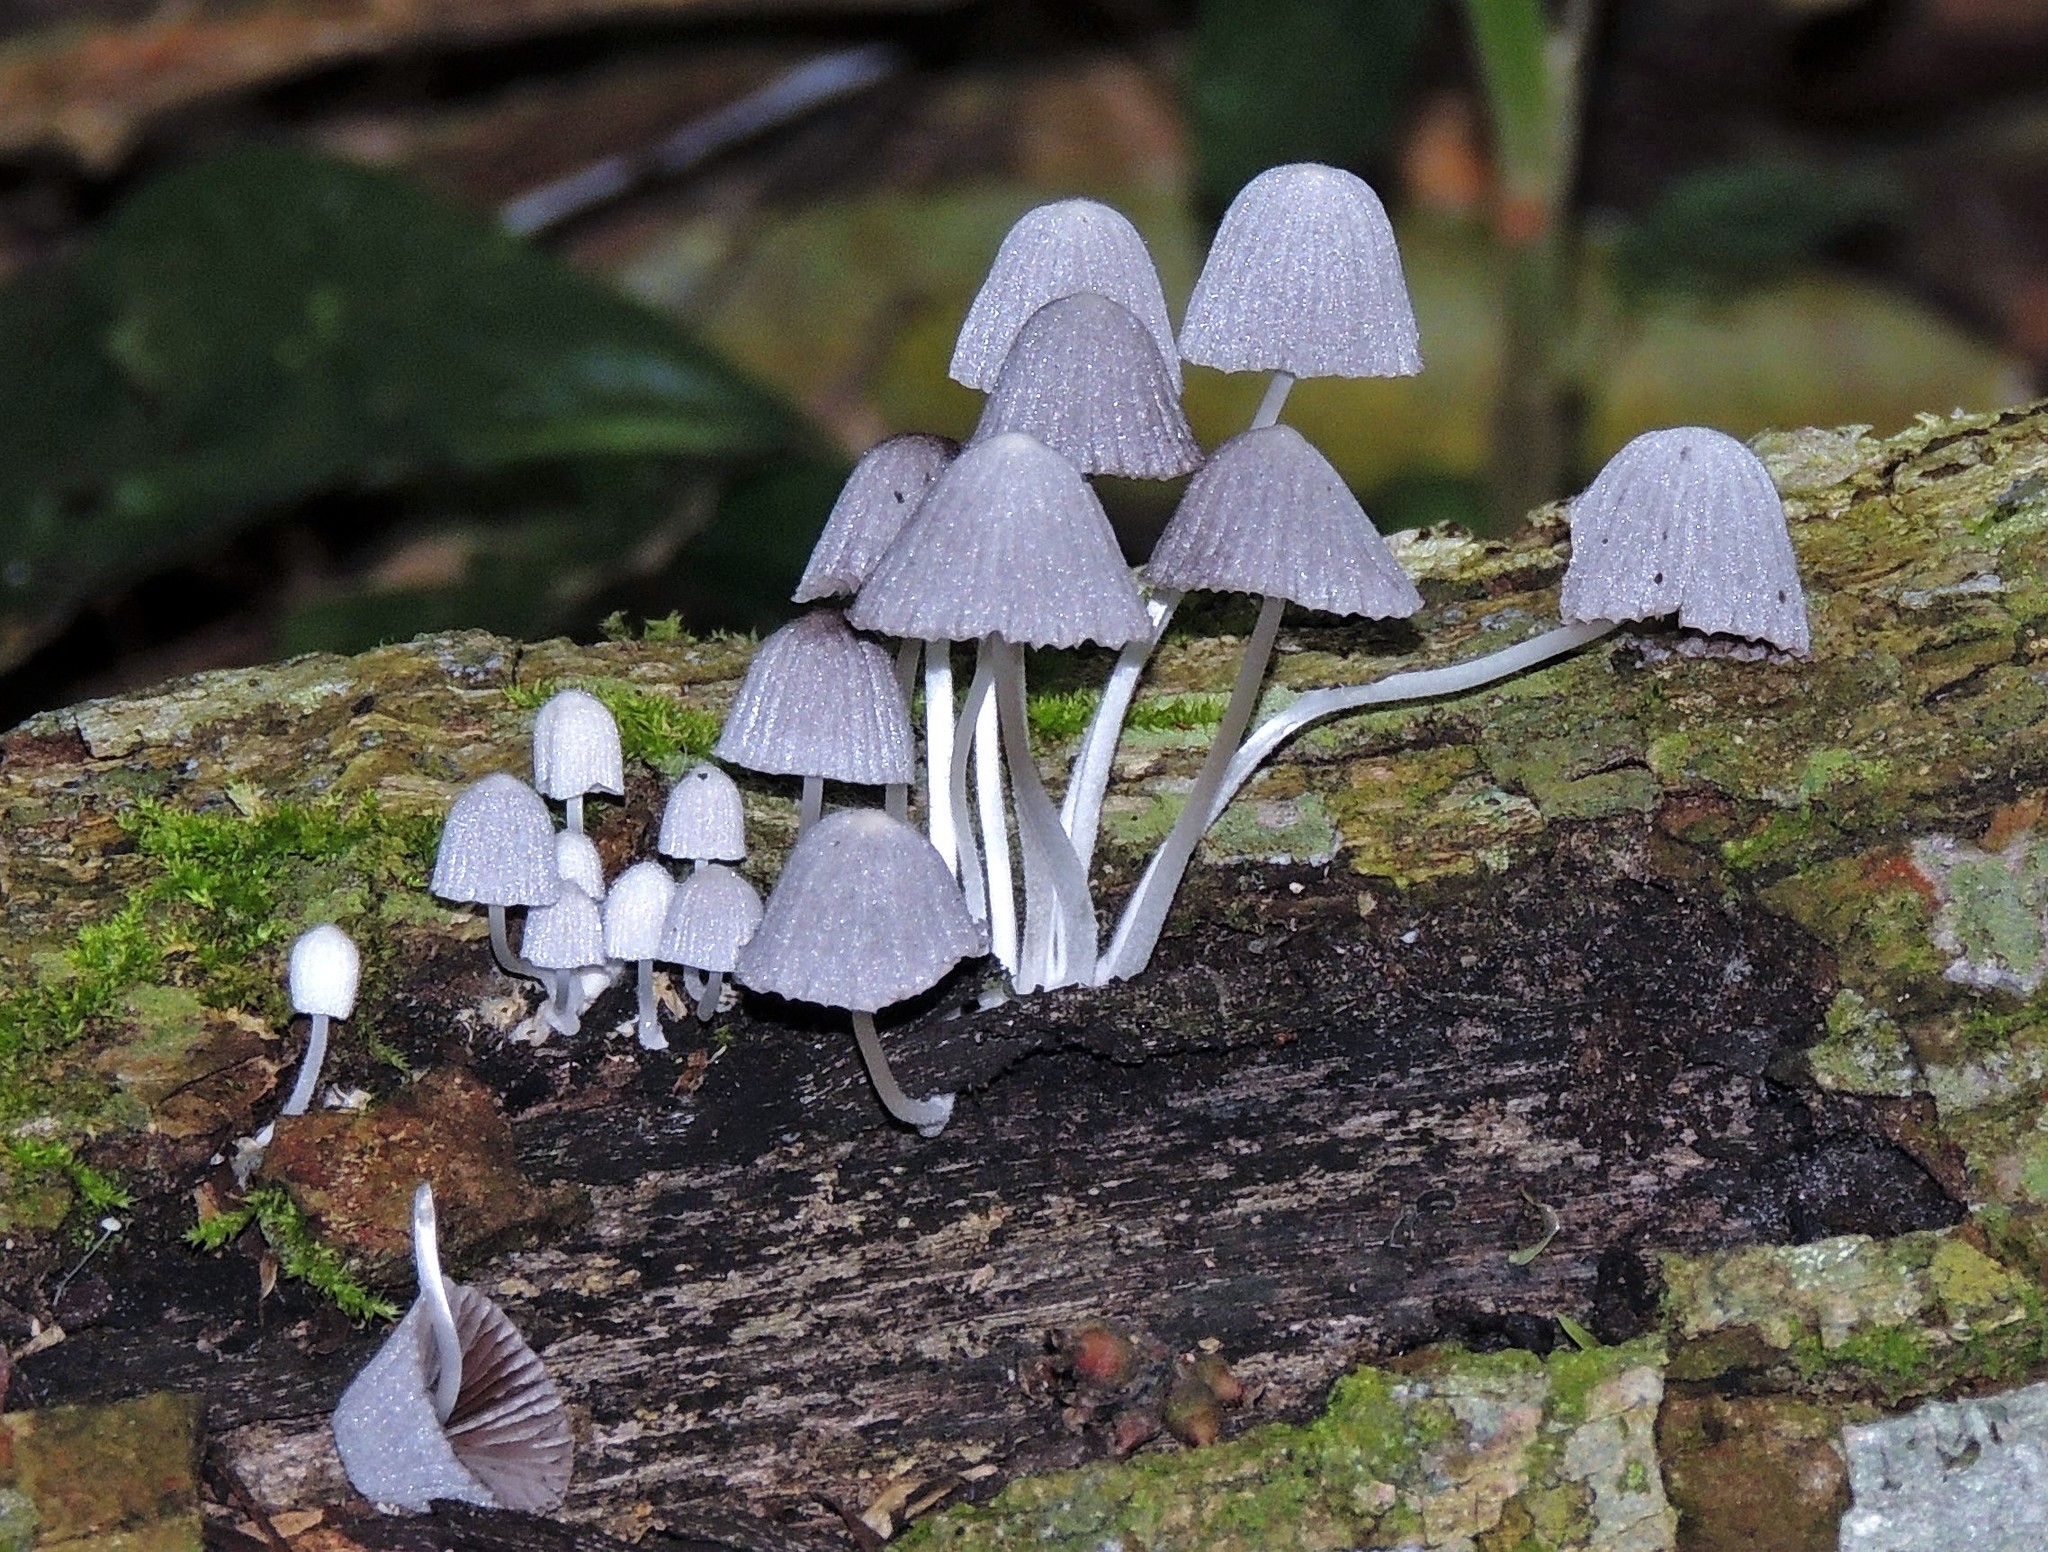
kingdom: Fungi
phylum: Basidiomycota
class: Agaricomycetes
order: Agaricales
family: Psathyrellaceae
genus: Coprinellus
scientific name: Coprinellus disseminatus
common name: Fairies' bonnets
